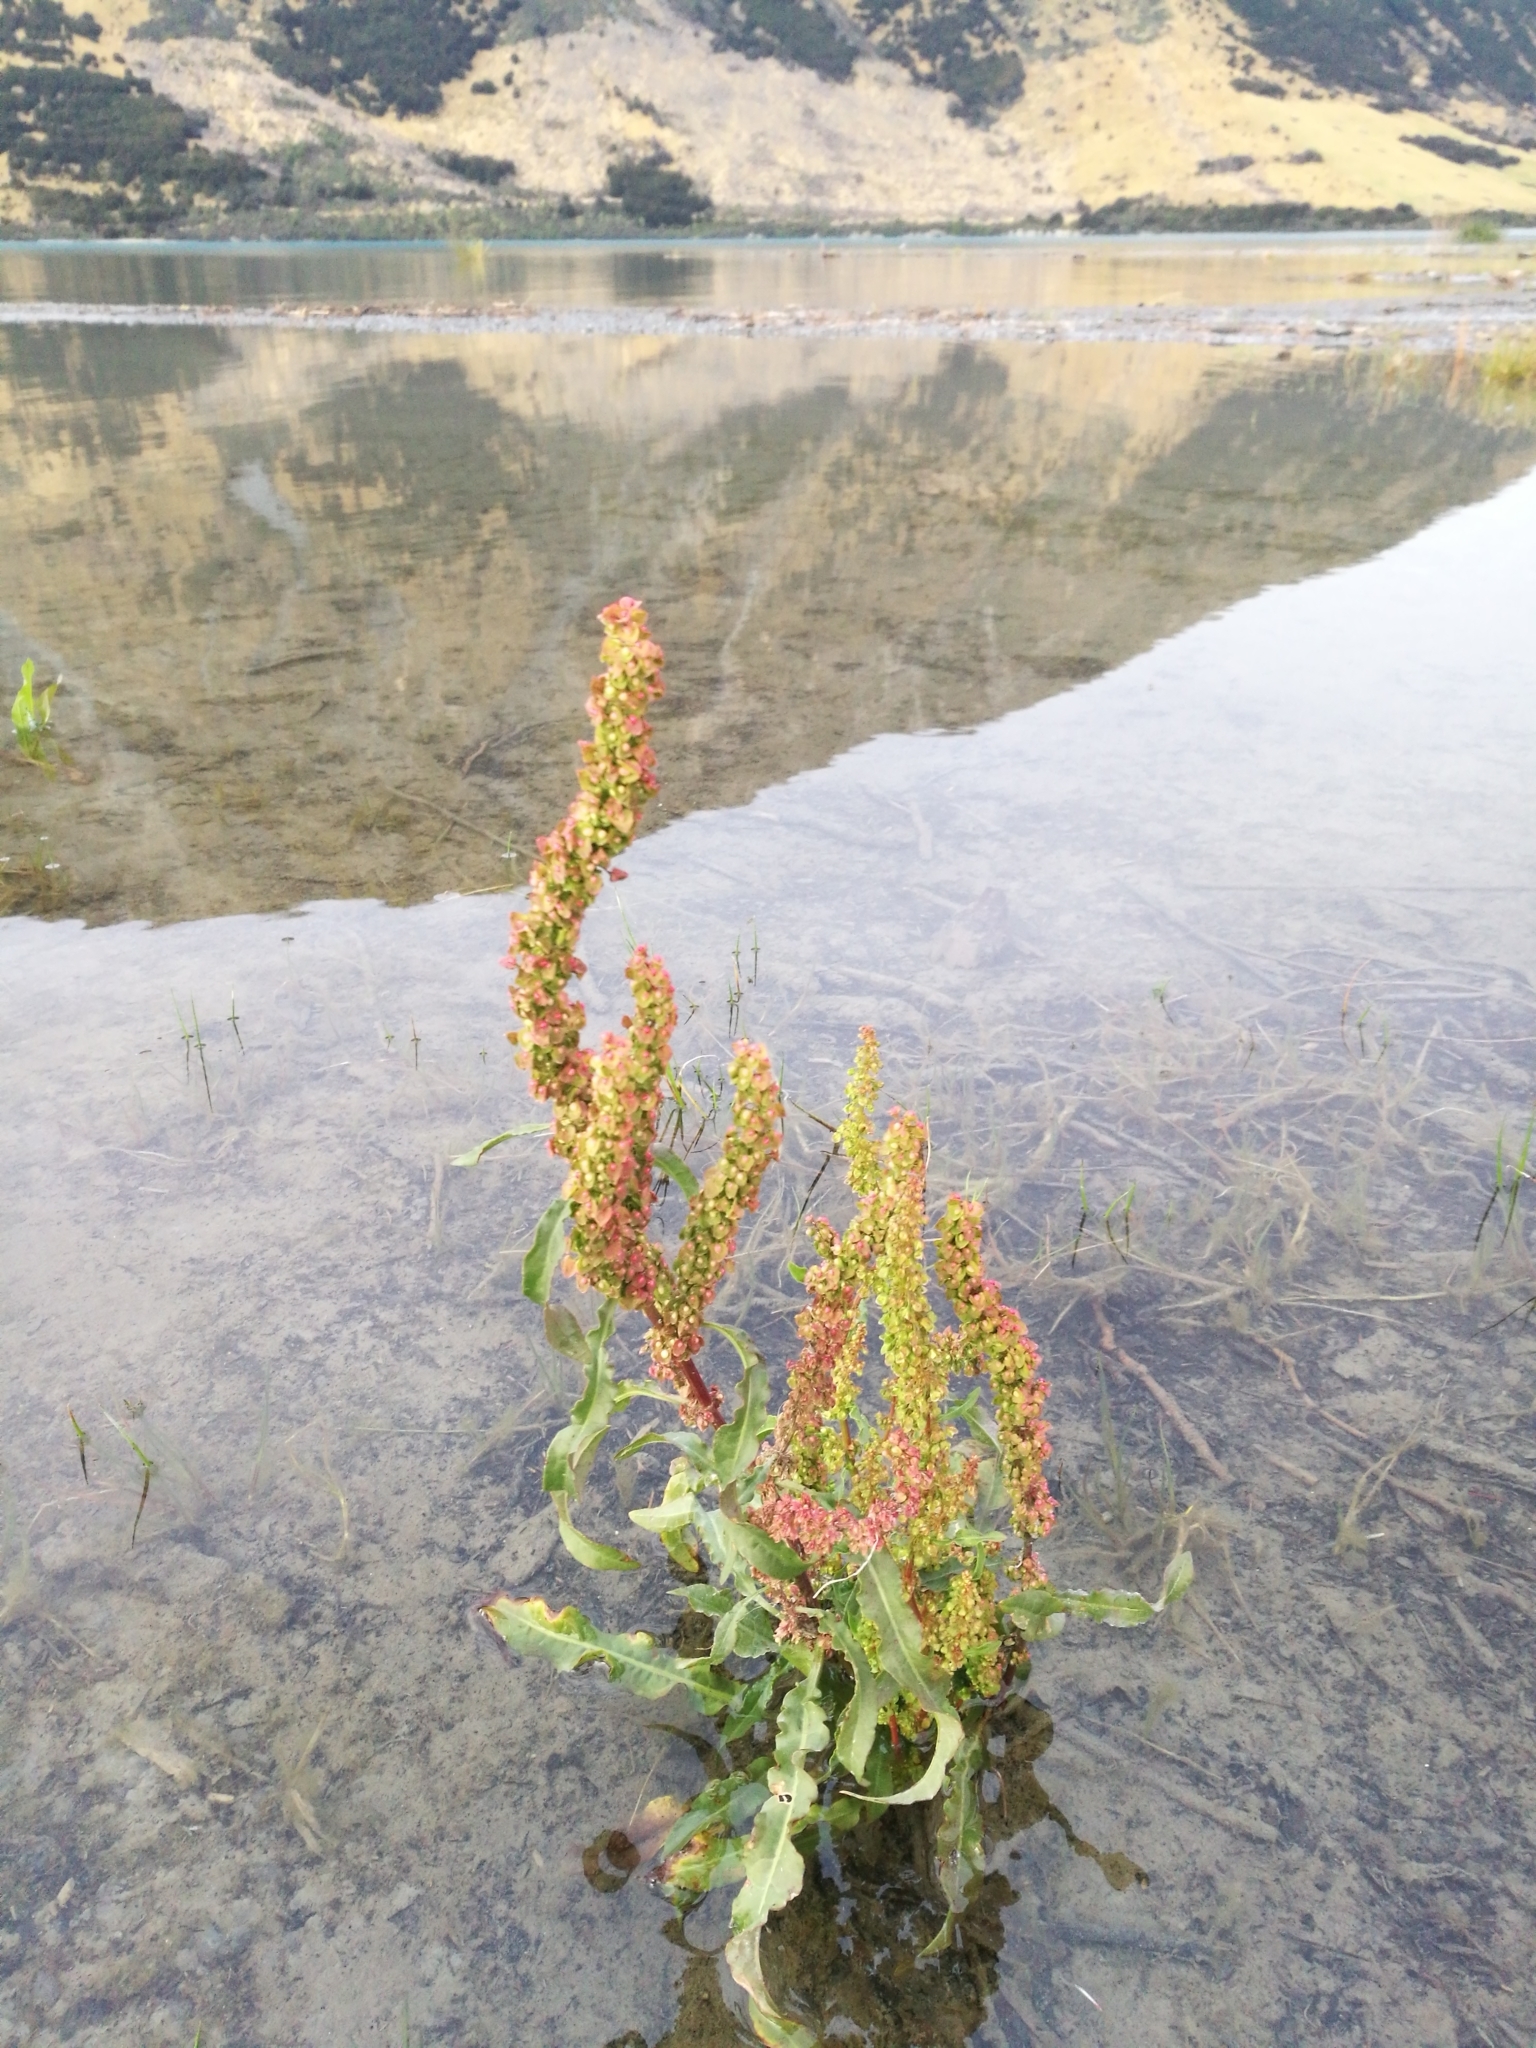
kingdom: Plantae
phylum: Tracheophyta
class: Magnoliopsida
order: Caryophyllales
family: Polygonaceae
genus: Rumex
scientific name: Rumex crispus
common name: Curled dock
